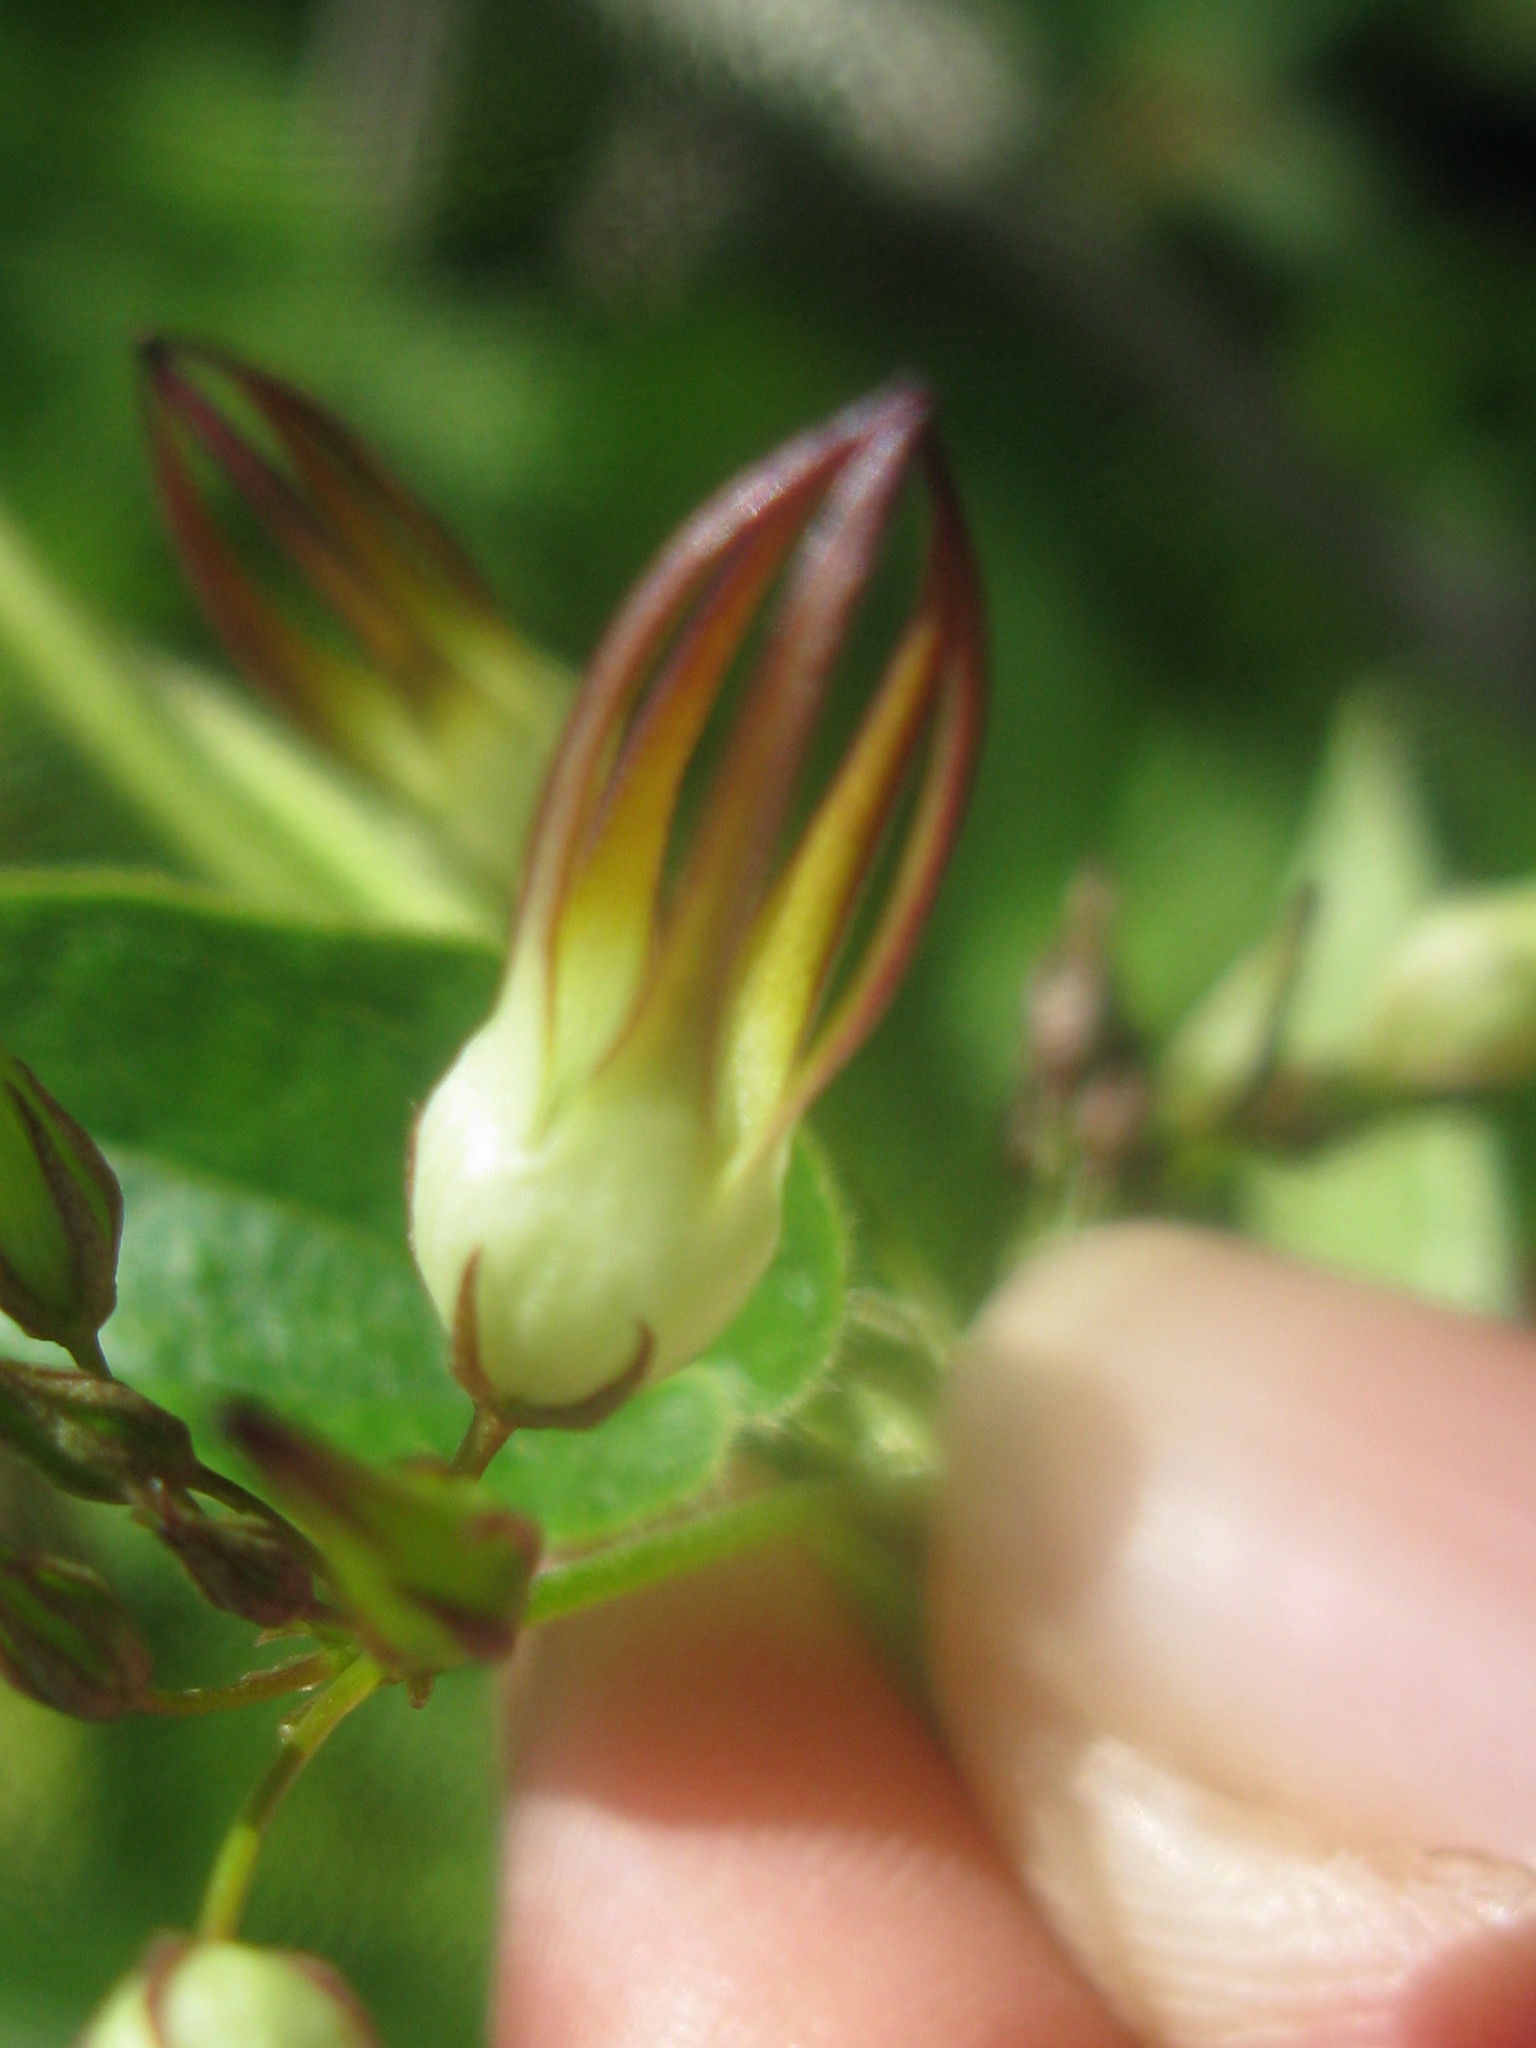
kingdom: Plantae
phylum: Tracheophyta
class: Magnoliopsida
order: Gentianales
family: Apocynaceae
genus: Riocreuxia
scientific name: Riocreuxia alexandrina
